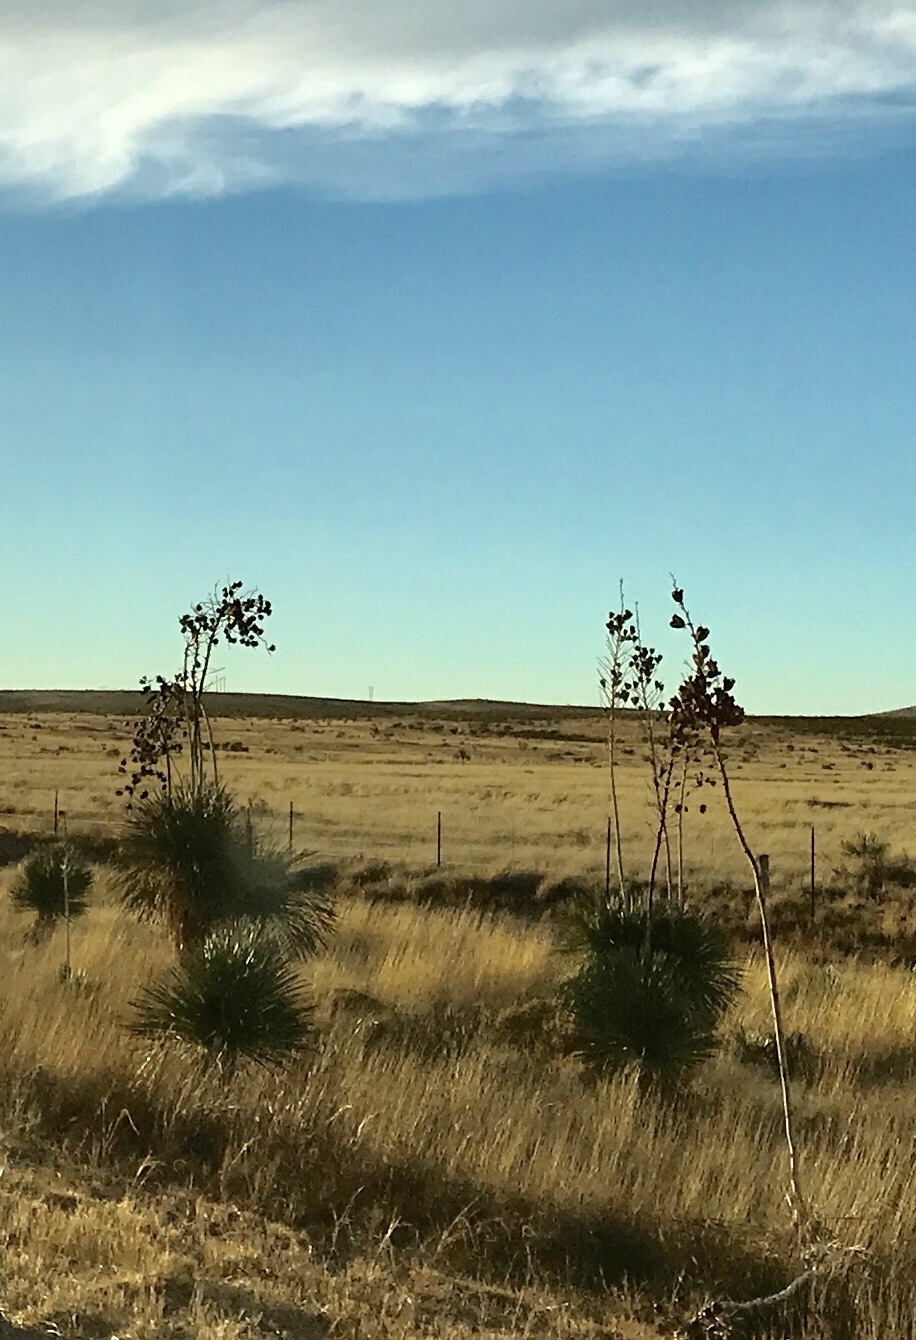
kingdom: Plantae
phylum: Tracheophyta
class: Liliopsida
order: Asparagales
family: Asparagaceae
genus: Yucca
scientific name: Yucca elata
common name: Palmella
